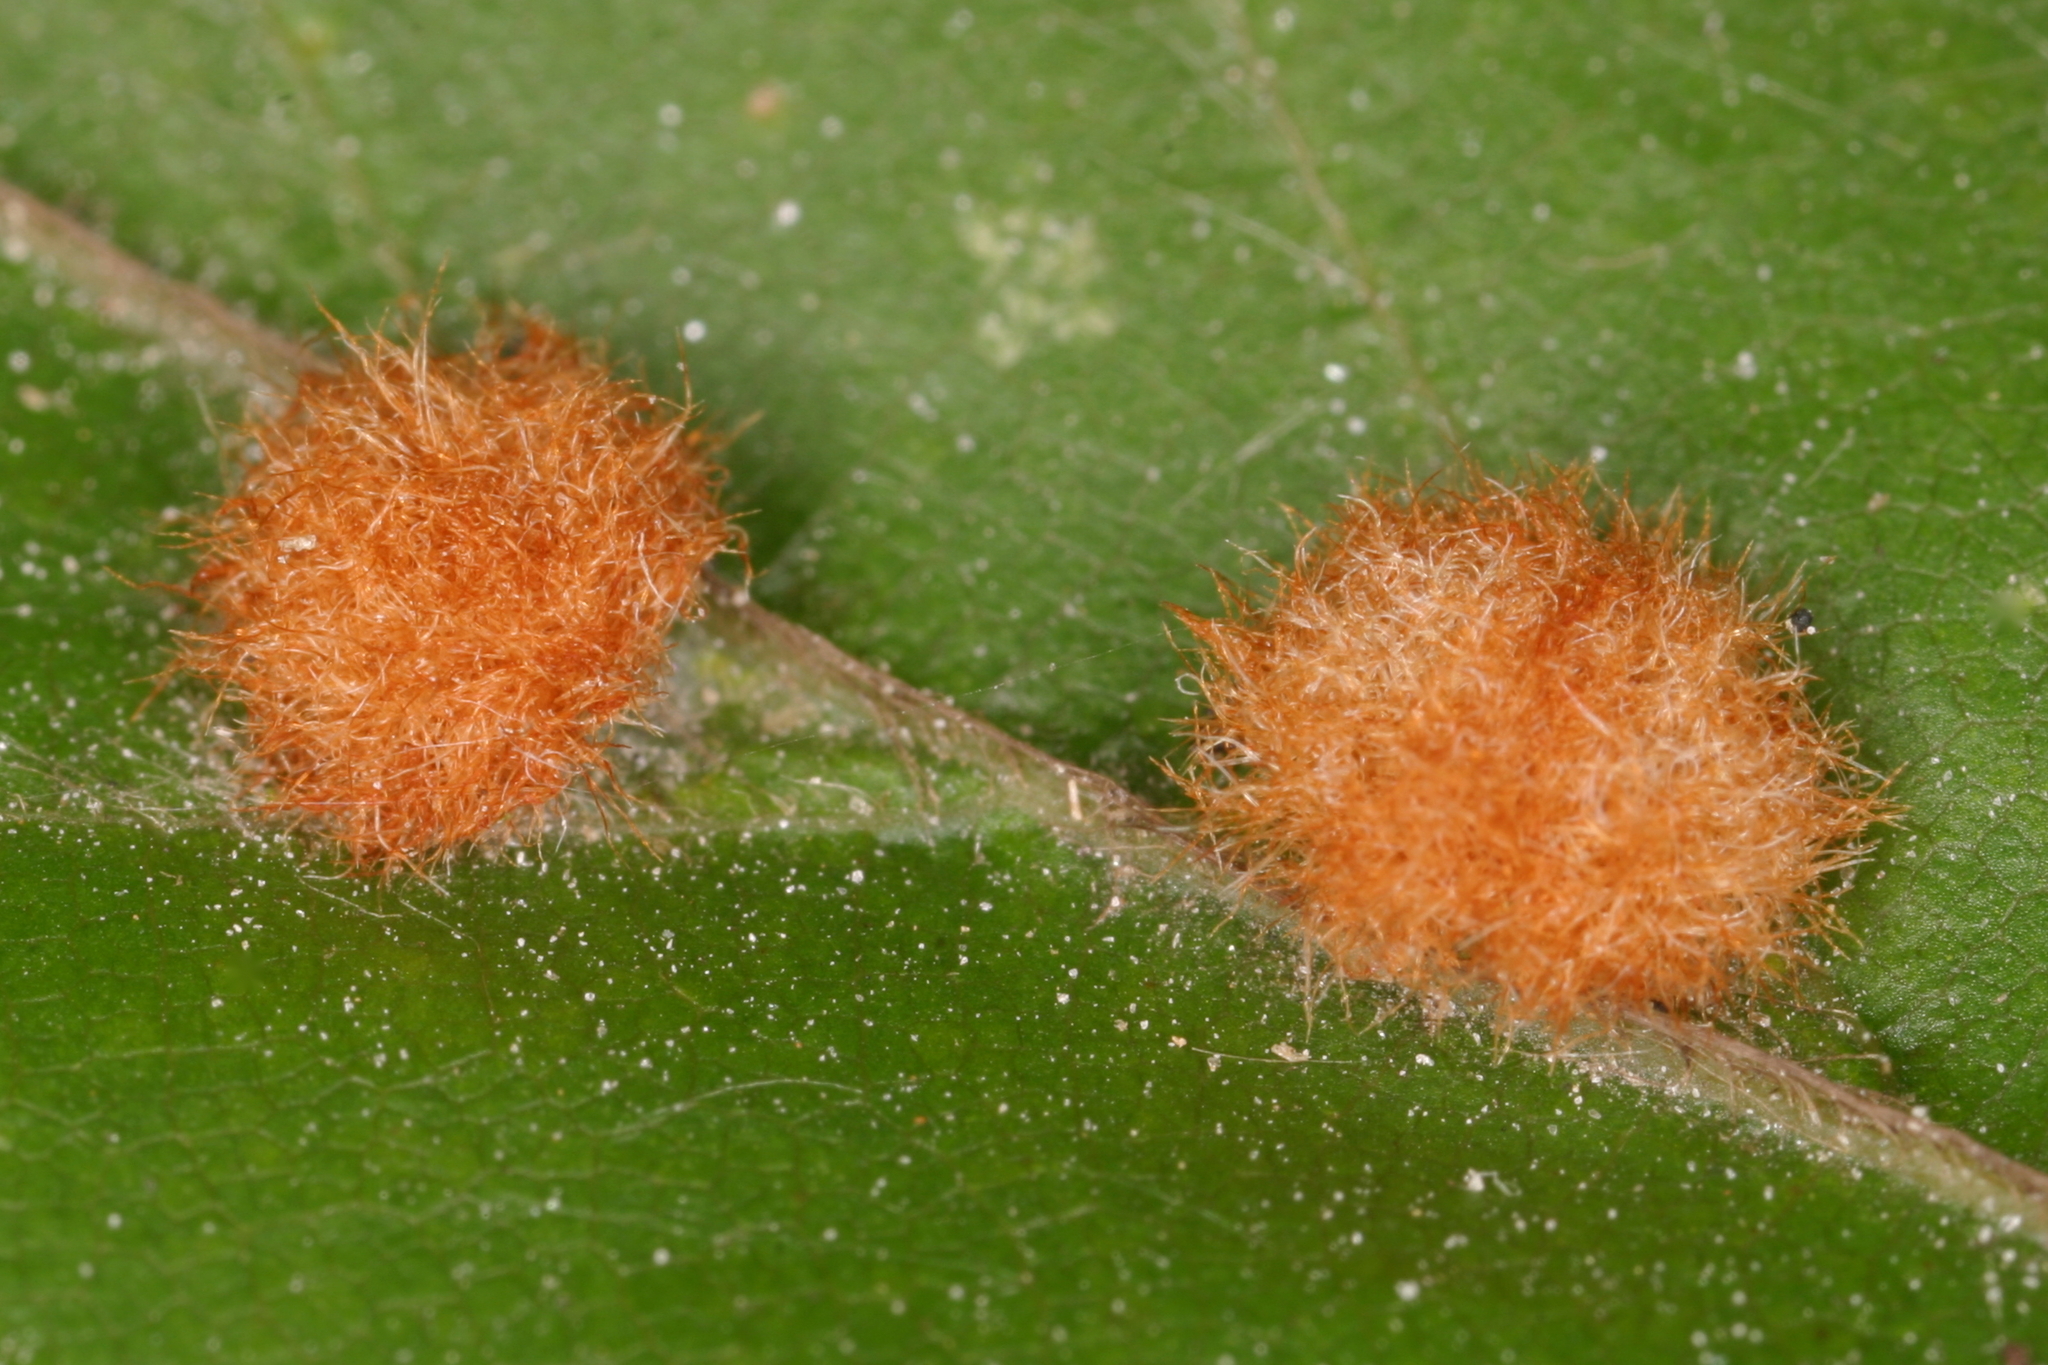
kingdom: Animalia
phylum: Arthropoda
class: Insecta
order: Diptera
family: Cecidomyiidae
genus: Hartigiola
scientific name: Hartigiola annulipes
